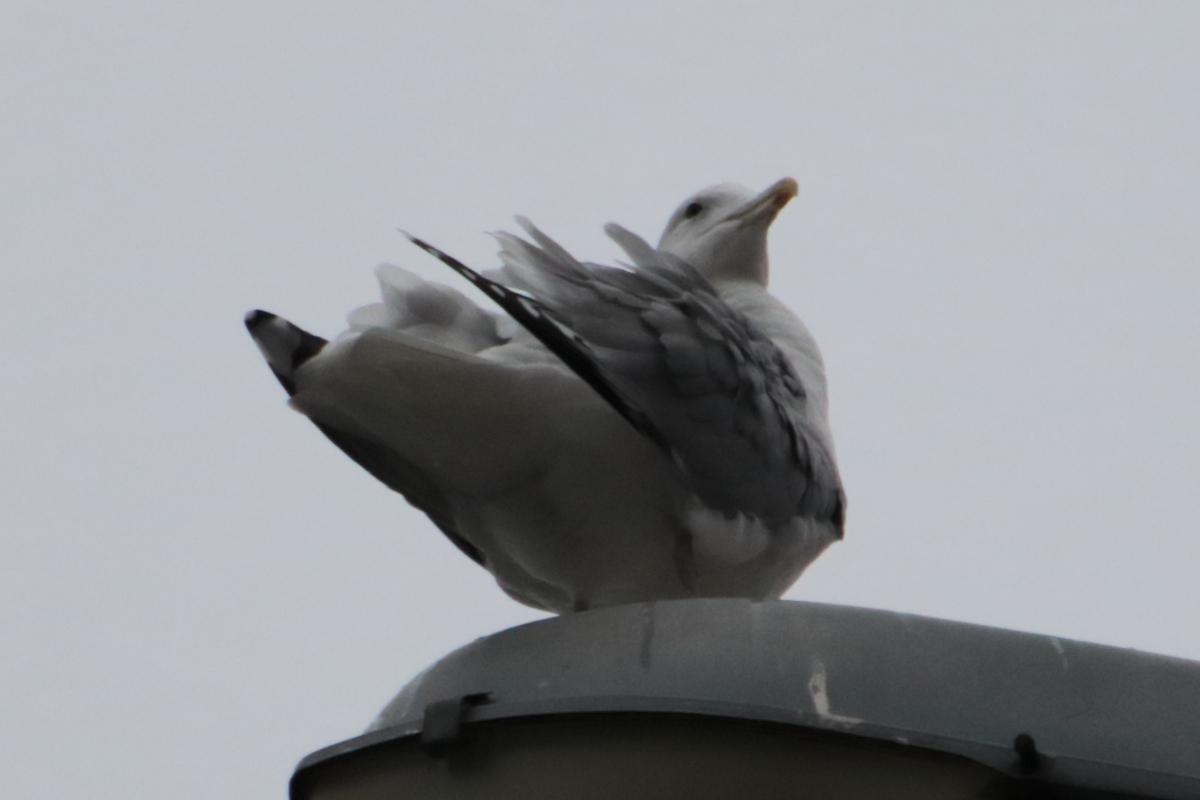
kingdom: Animalia
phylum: Chordata
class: Aves
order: Charadriiformes
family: Laridae
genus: Larus
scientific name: Larus argentatus
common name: Herring gull
